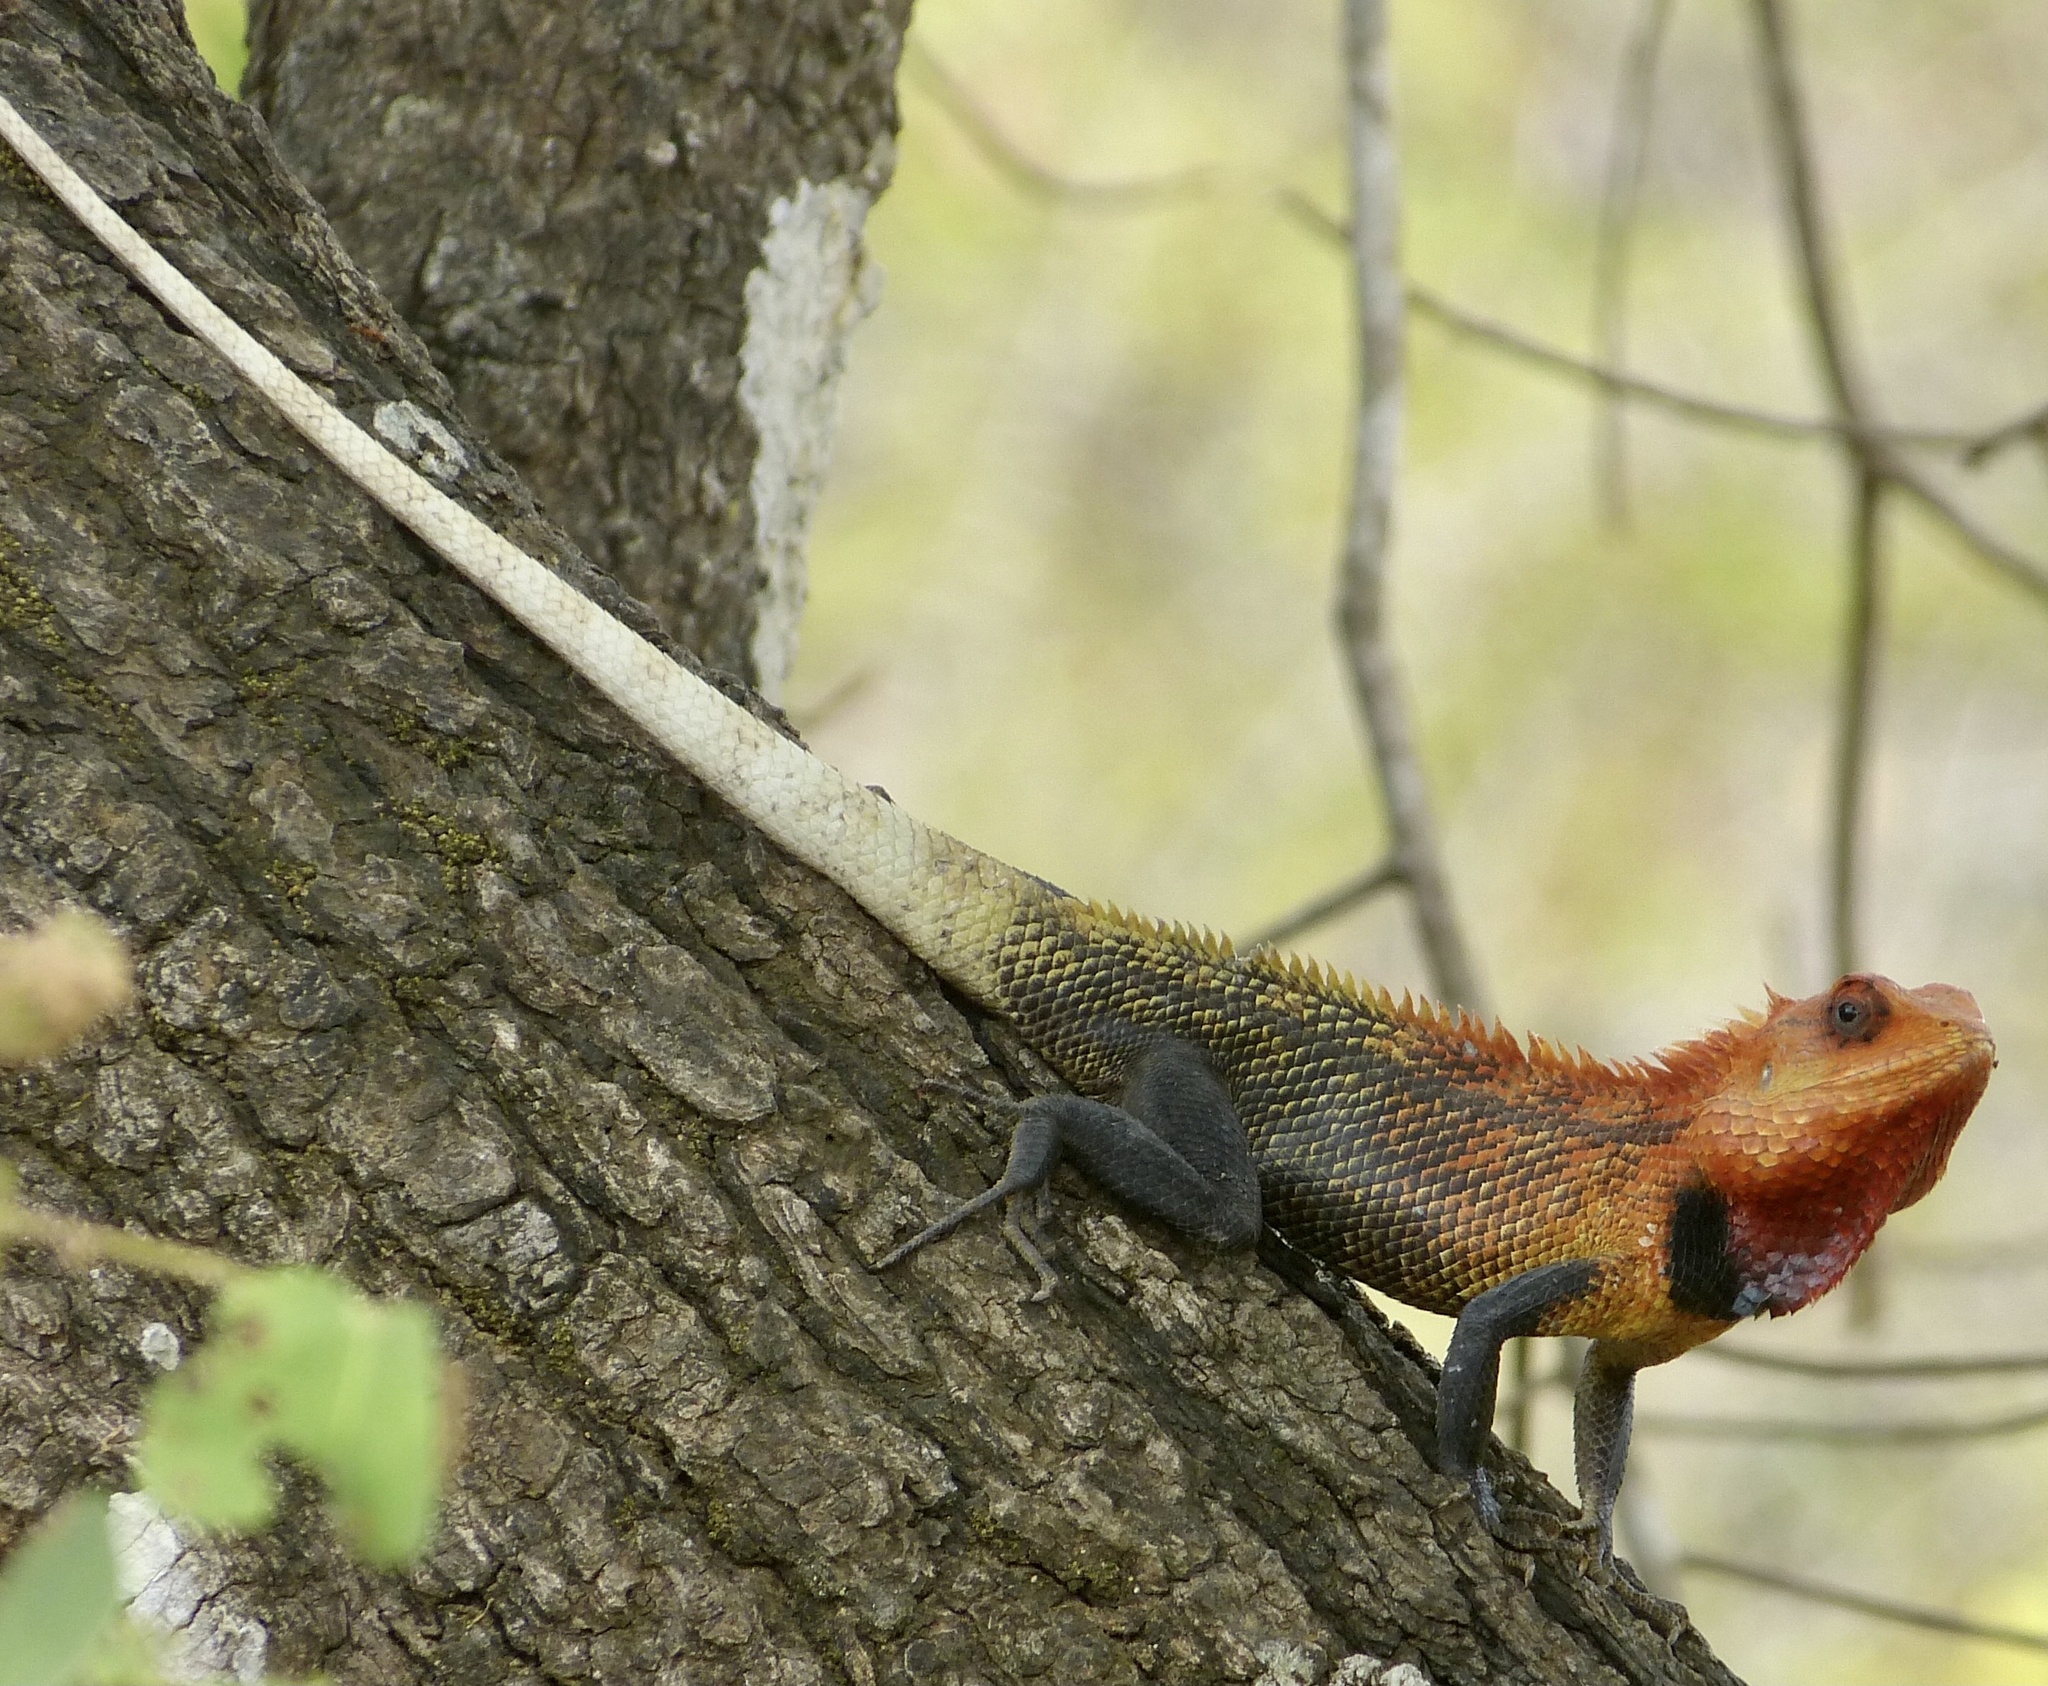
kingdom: Animalia
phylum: Chordata
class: Squamata
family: Agamidae
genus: Calotes
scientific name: Calotes versicolor
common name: Oriental garden lizard
